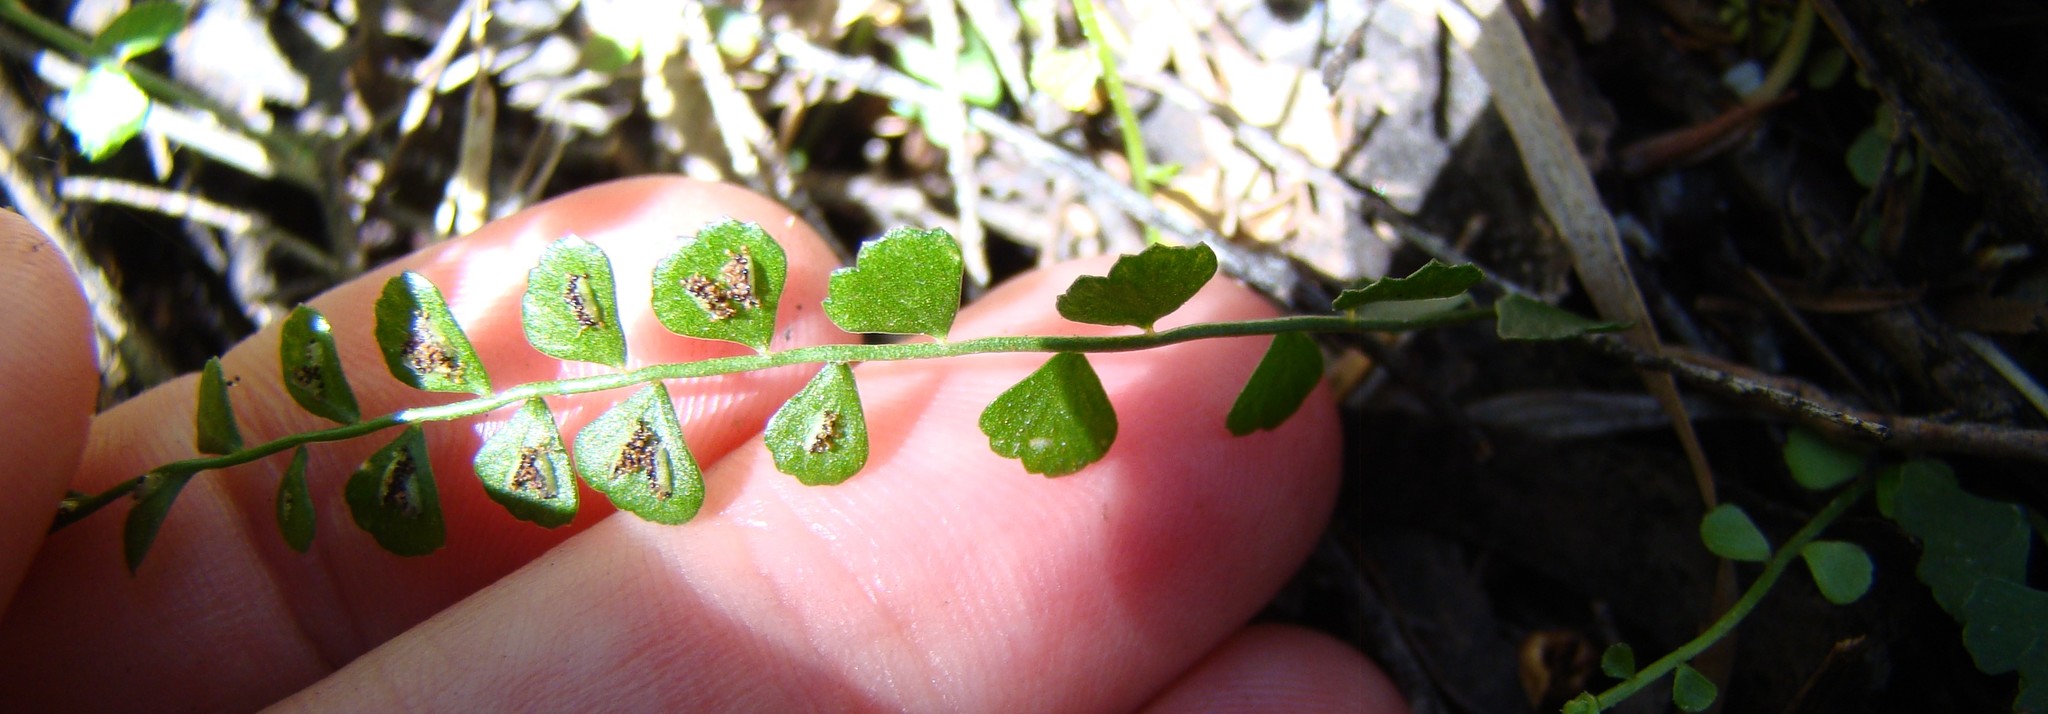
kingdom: Plantae
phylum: Tracheophyta
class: Polypodiopsida
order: Polypodiales
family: Aspleniaceae
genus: Asplenium
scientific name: Asplenium flabellifolium
